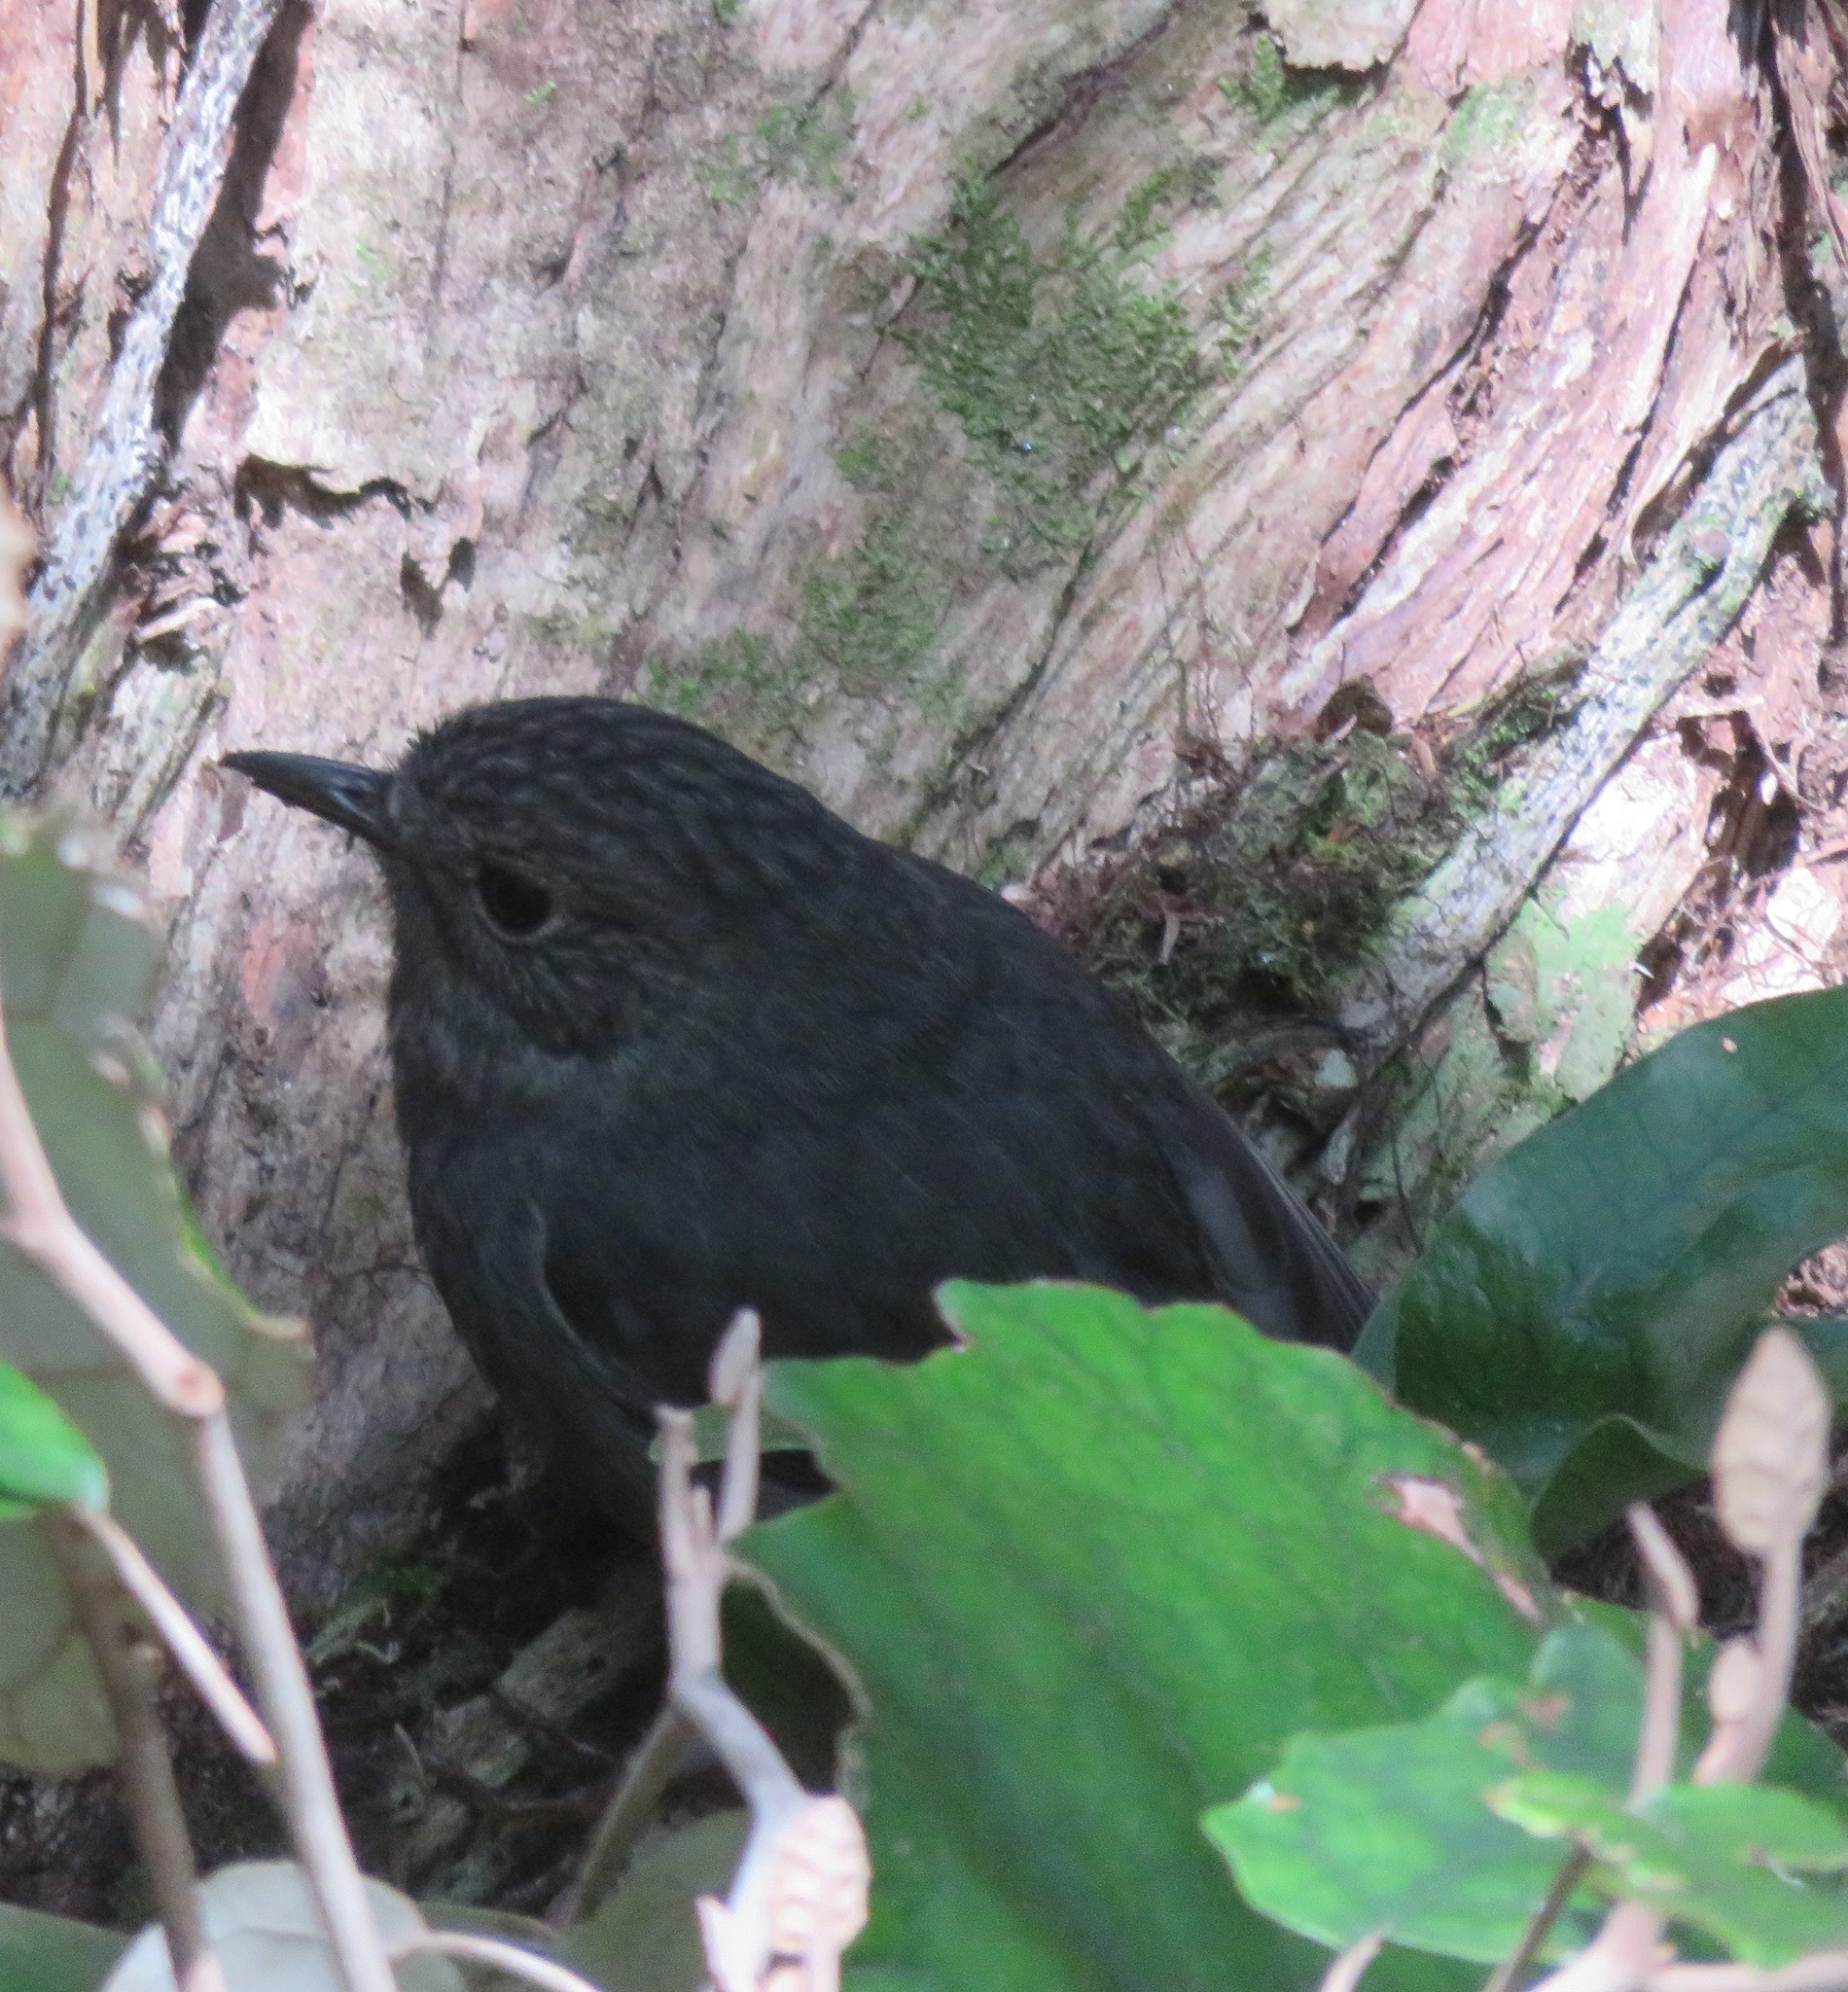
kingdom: Animalia
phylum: Chordata
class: Aves
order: Passeriformes
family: Petroicidae
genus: Petroica
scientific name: Petroica australis
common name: New zealand robin
